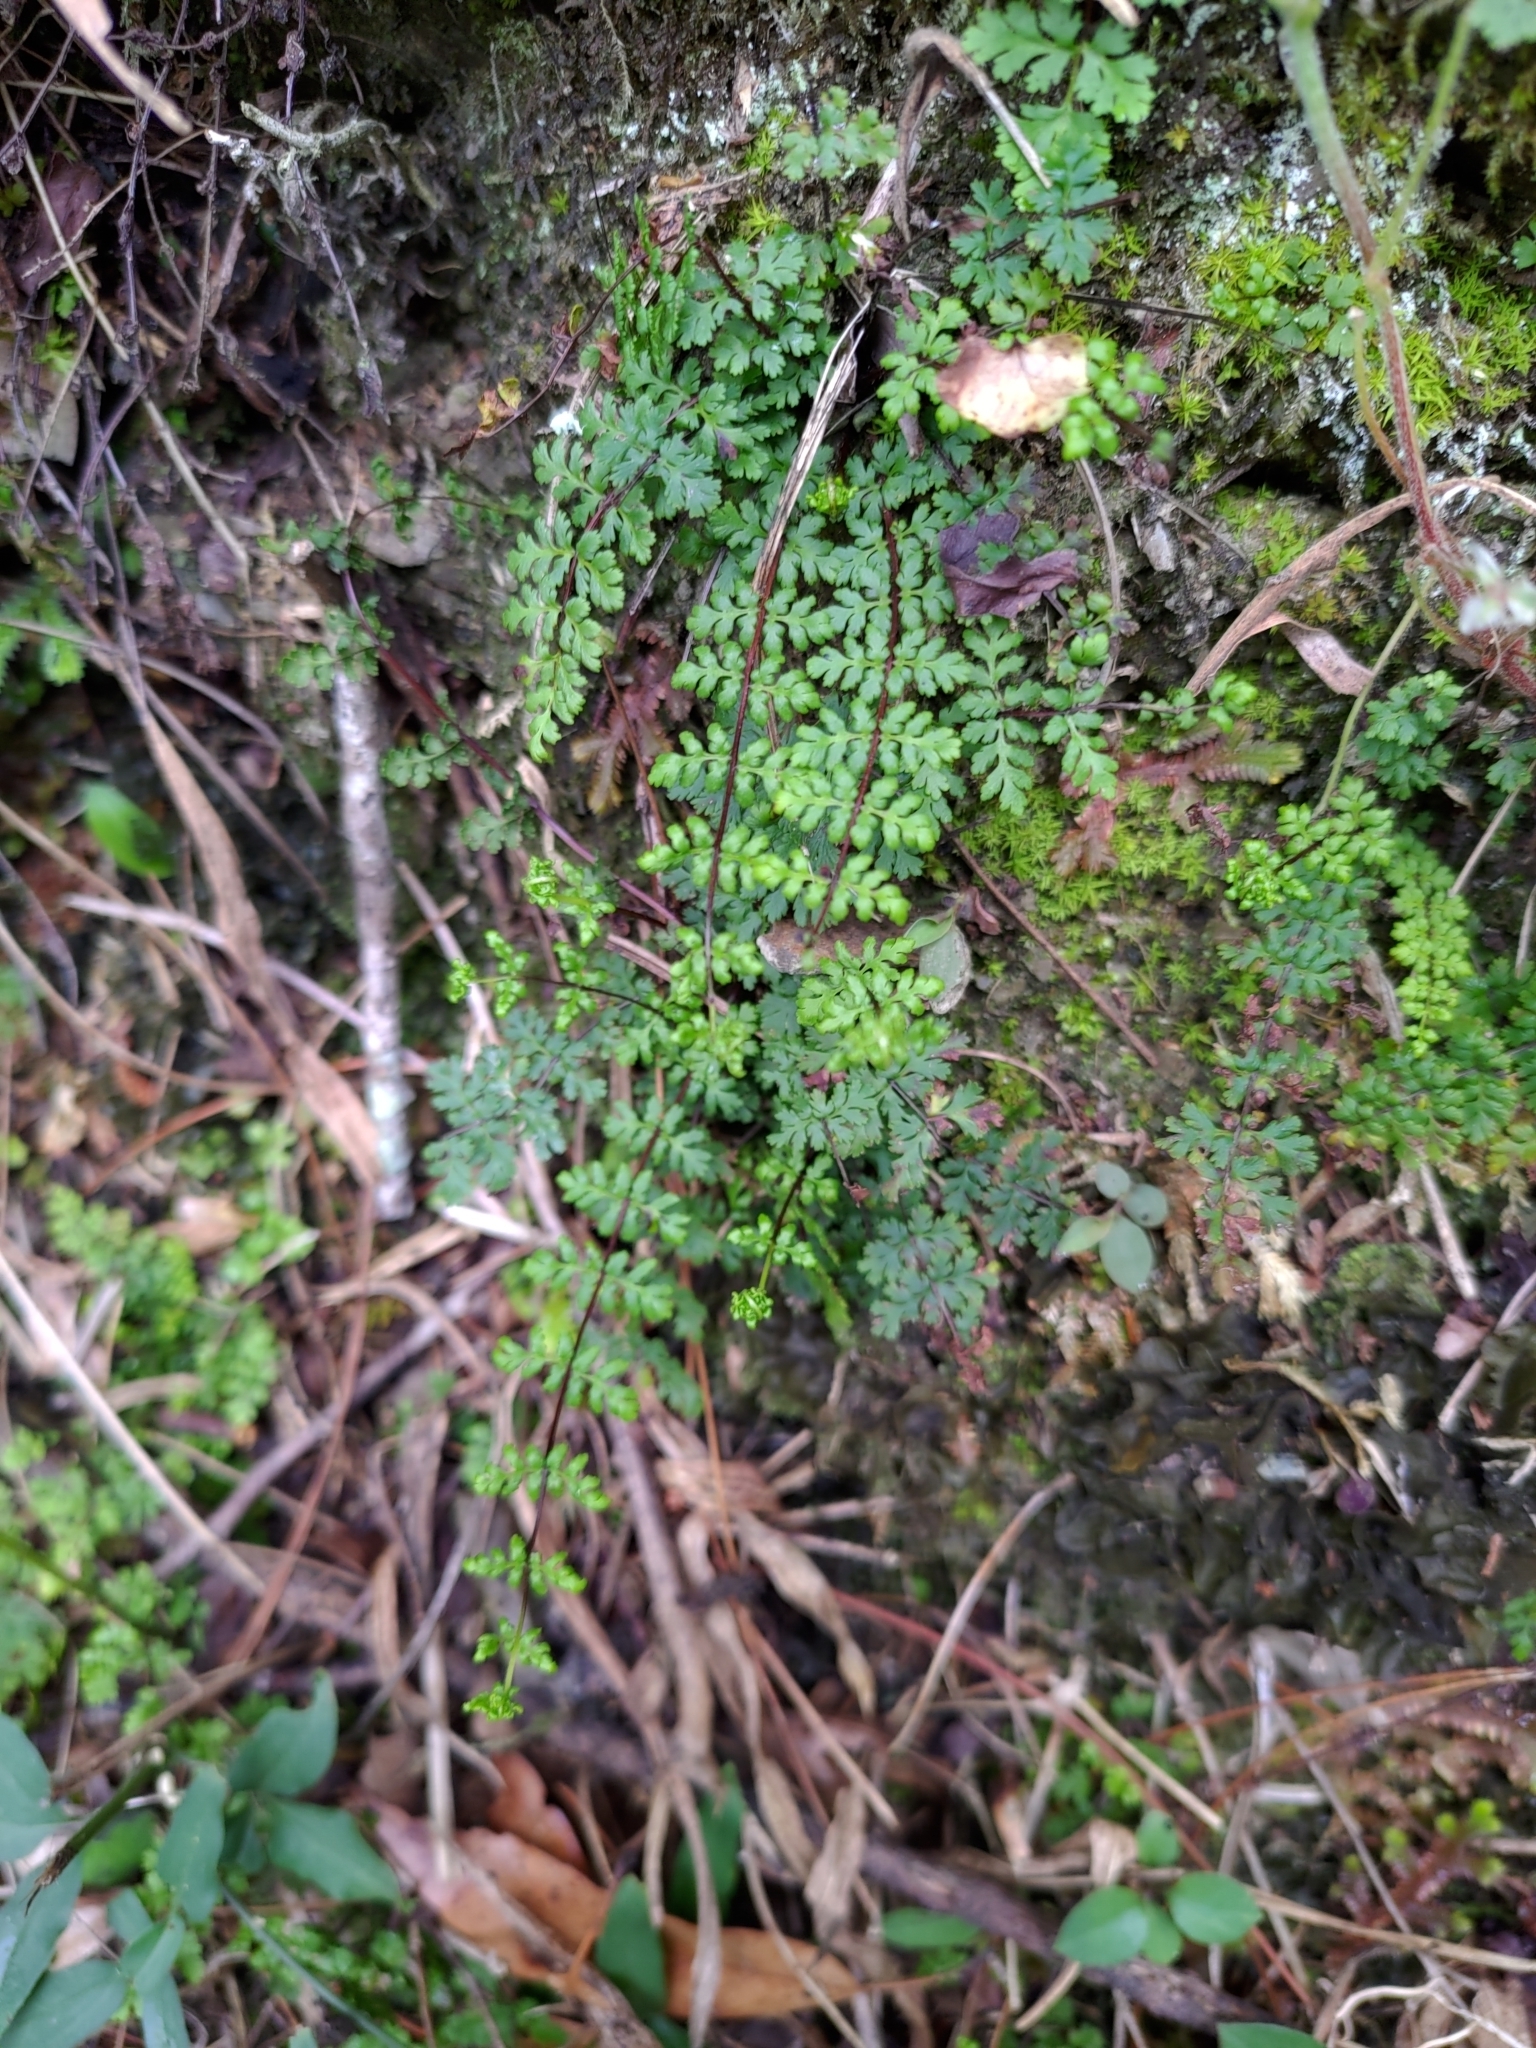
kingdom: Plantae
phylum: Tracheophyta
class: Polypodiopsida
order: Polypodiales
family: Pteridaceae
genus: Oeosporangium
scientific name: Oeosporangium chusanum
